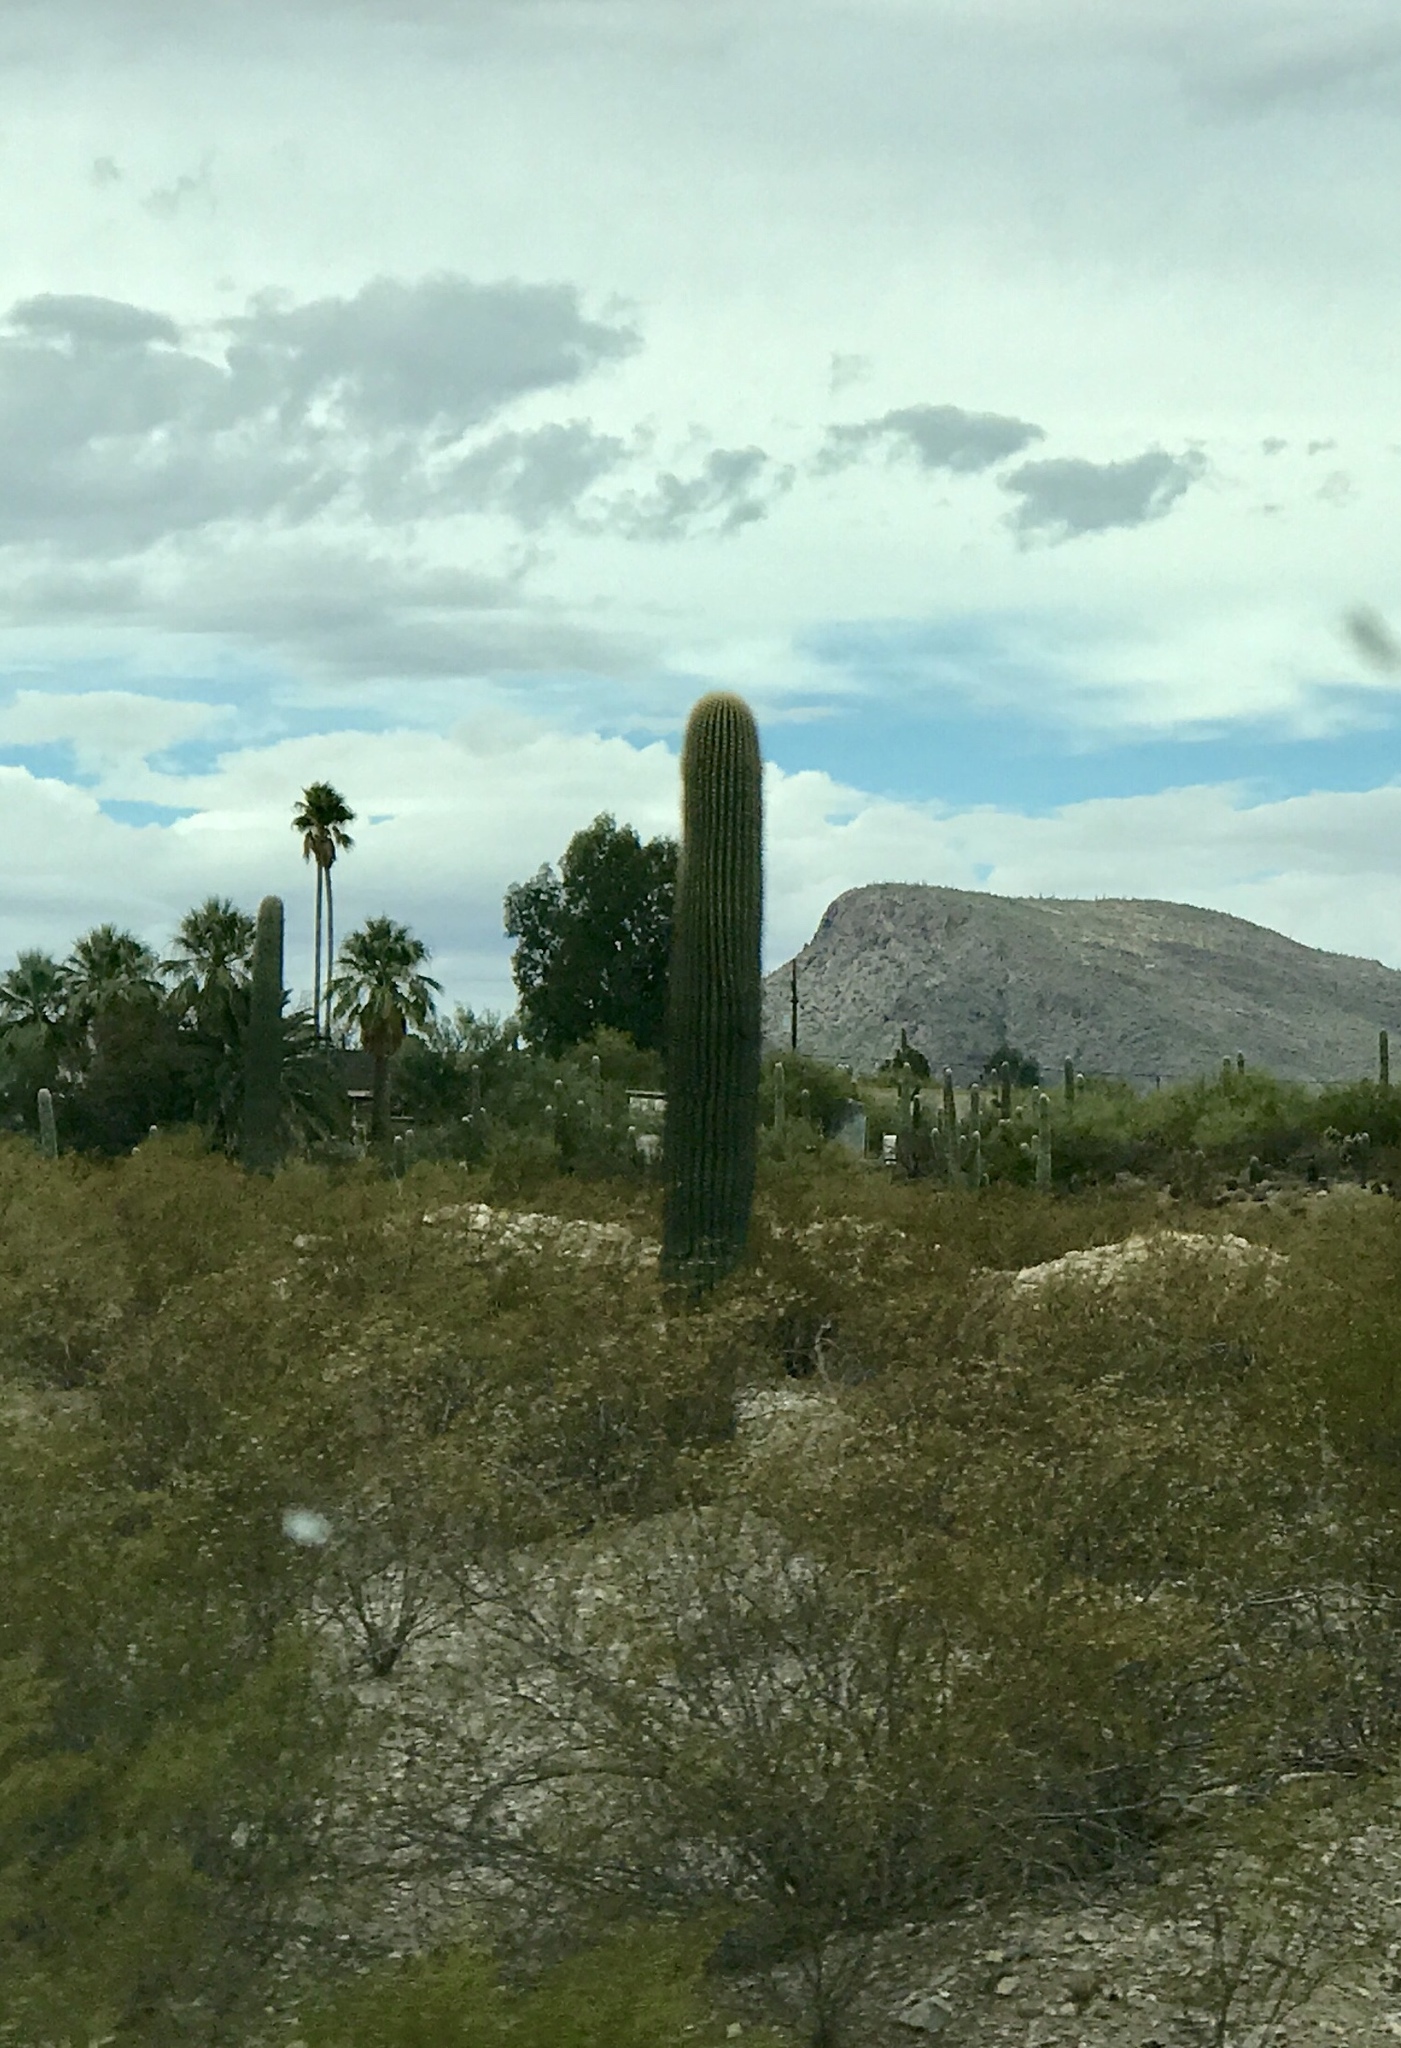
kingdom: Plantae
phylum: Tracheophyta
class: Magnoliopsida
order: Caryophyllales
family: Cactaceae
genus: Carnegiea
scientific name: Carnegiea gigantea
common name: Saguaro
